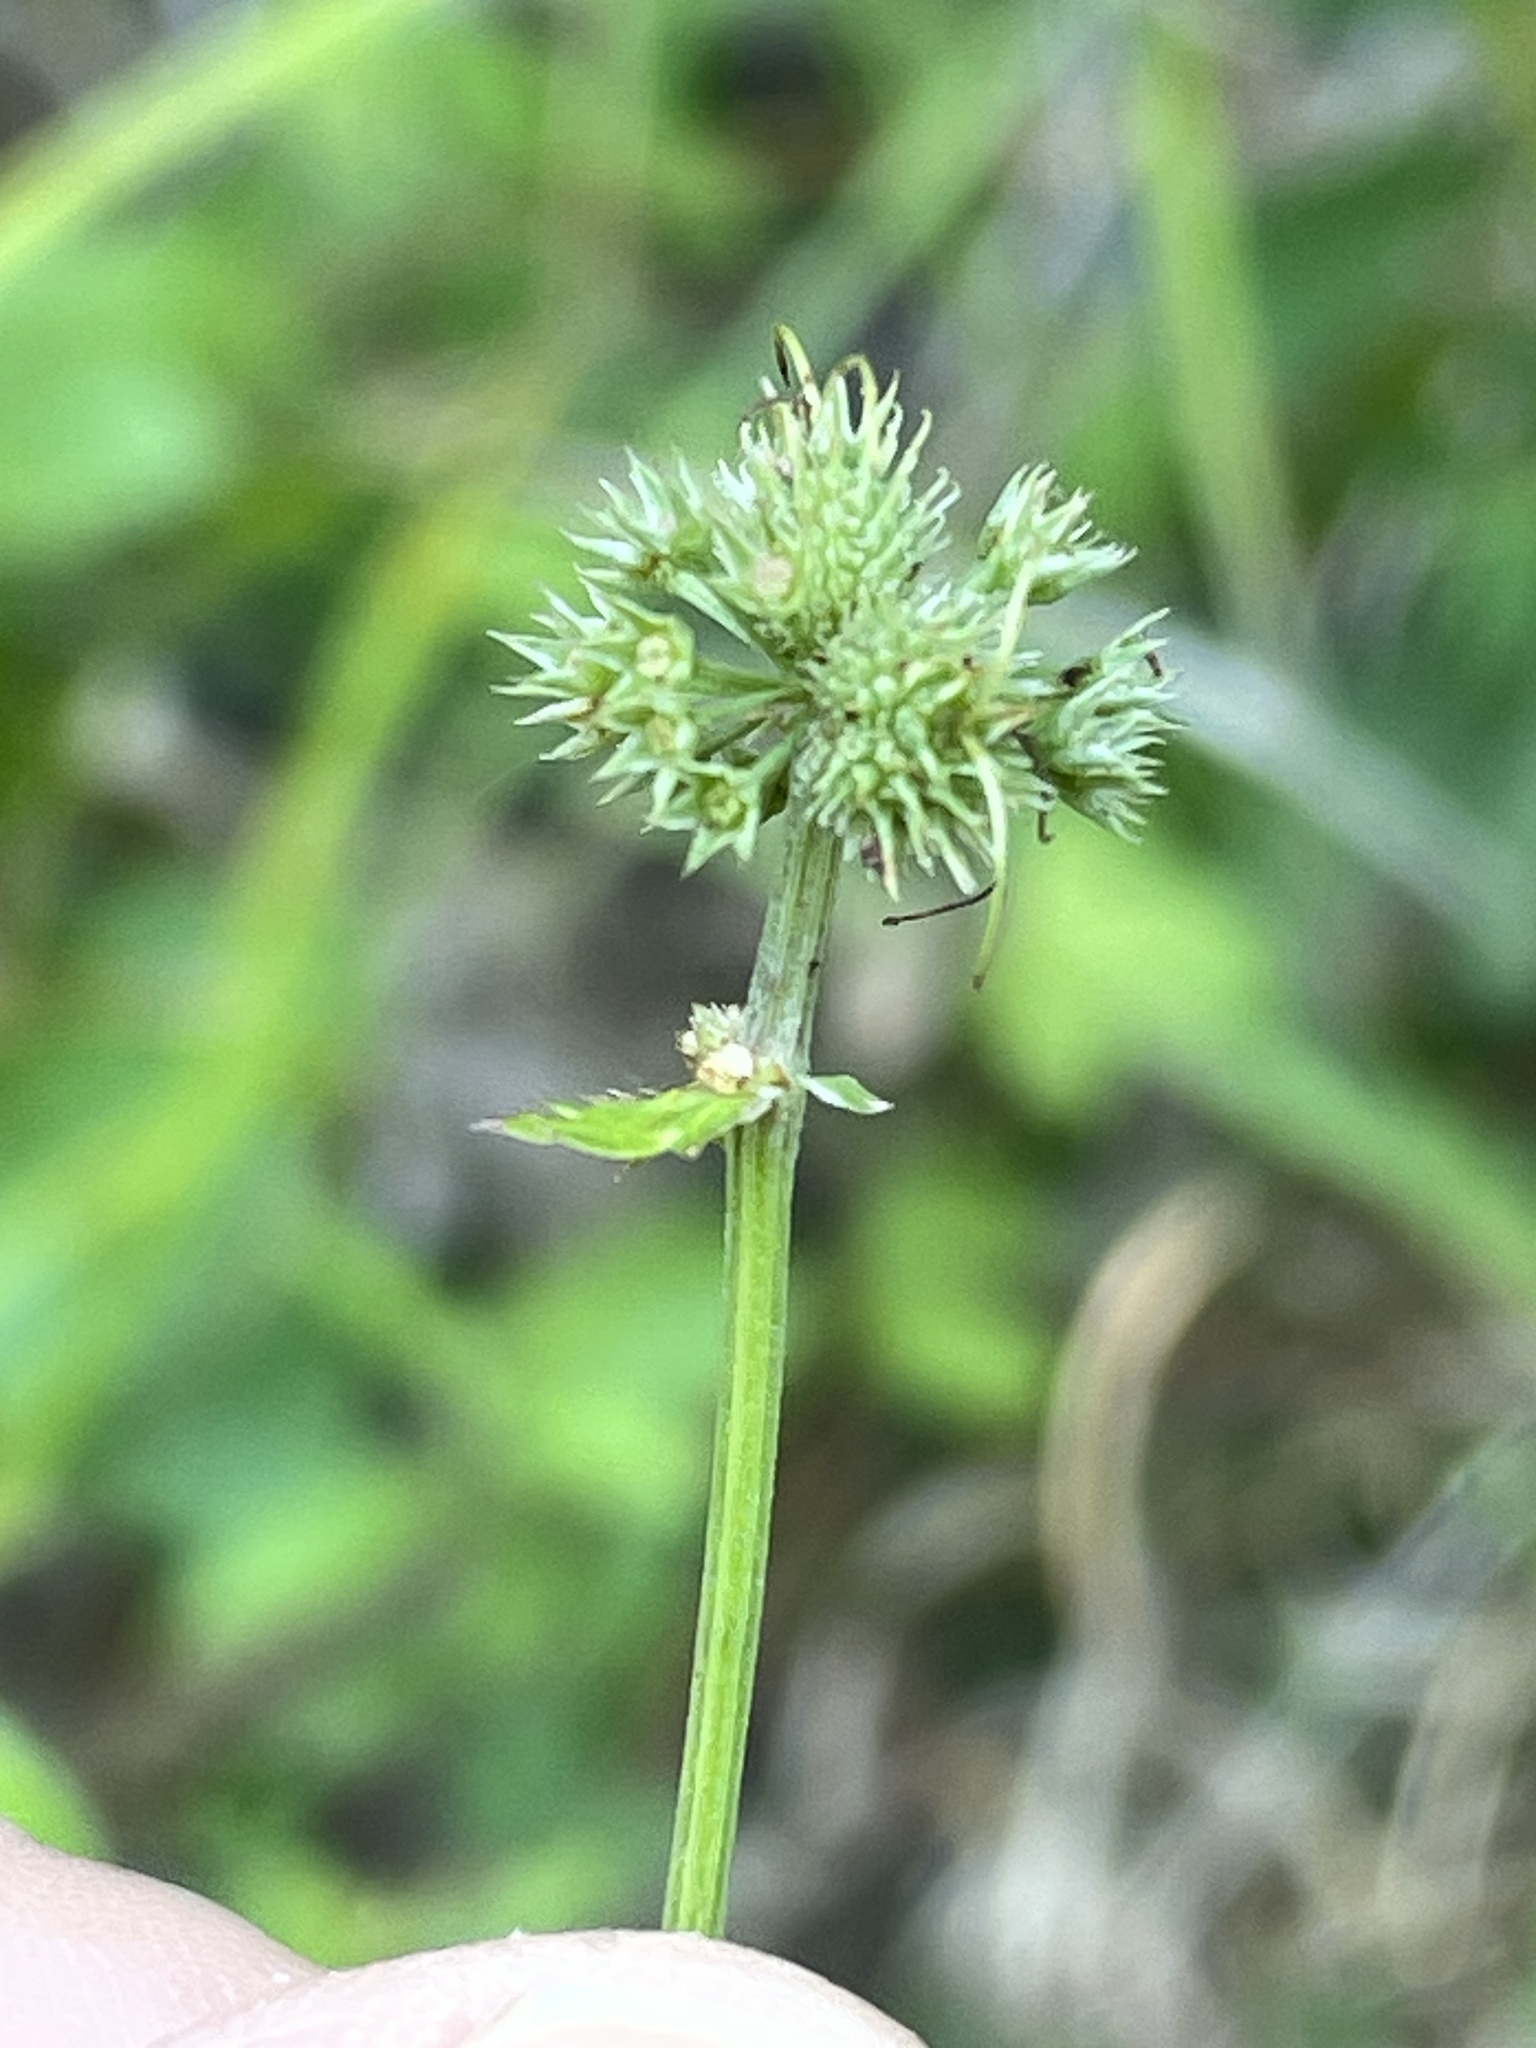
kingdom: Plantae
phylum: Tracheophyta
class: Magnoliopsida
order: Apiales
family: Apiaceae
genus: Sanicula
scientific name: Sanicula marilandica
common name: Black snakeroot
